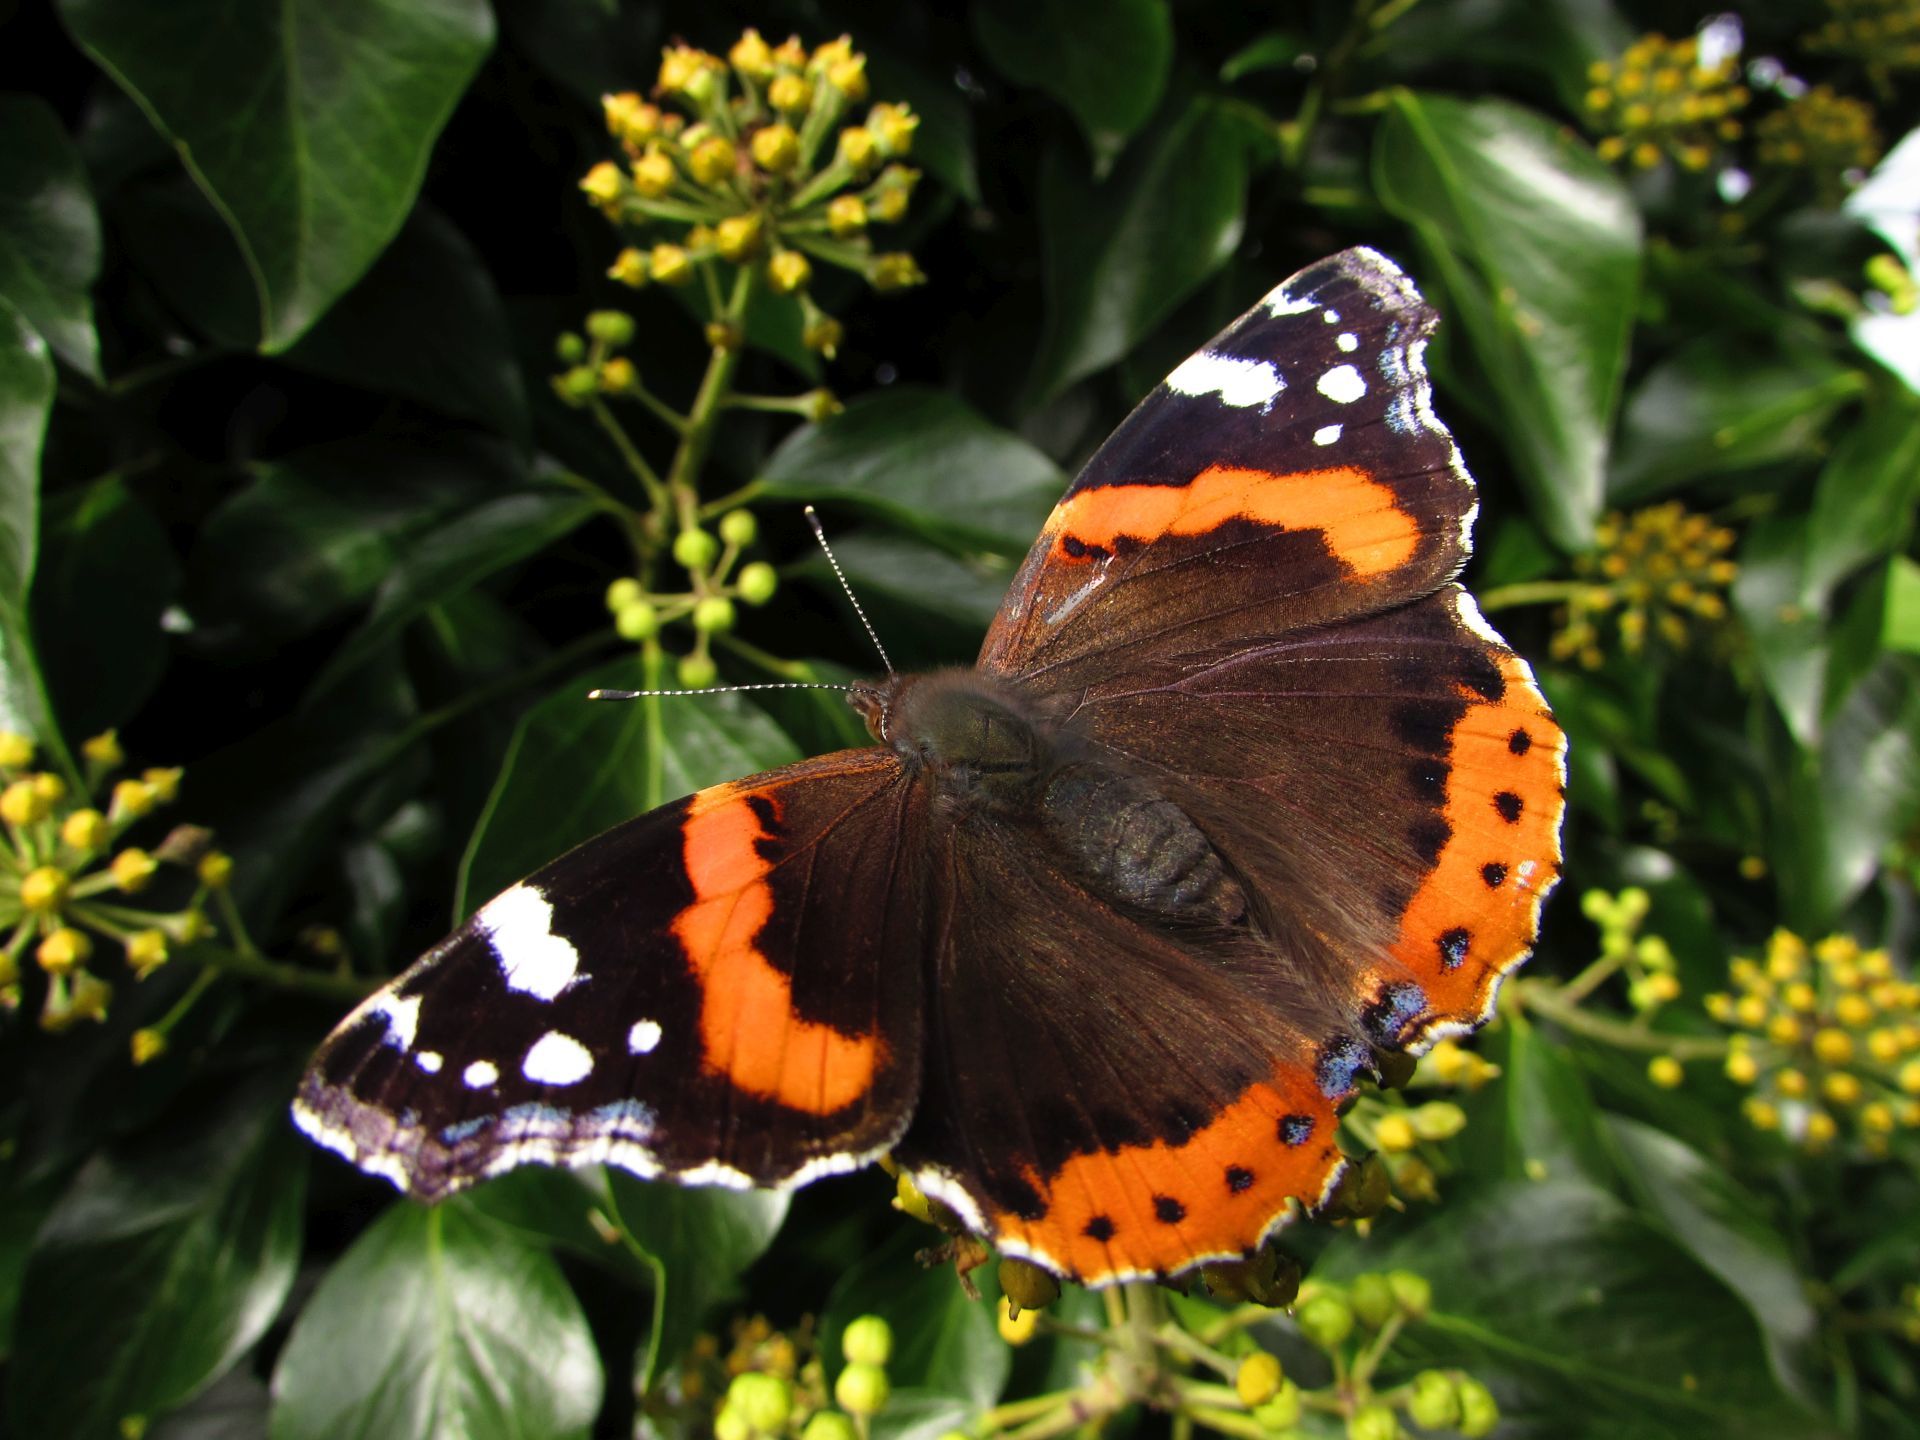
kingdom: Animalia
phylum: Arthropoda
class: Insecta
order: Lepidoptera
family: Nymphalidae
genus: Vanessa
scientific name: Vanessa atalanta
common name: Red admiral
